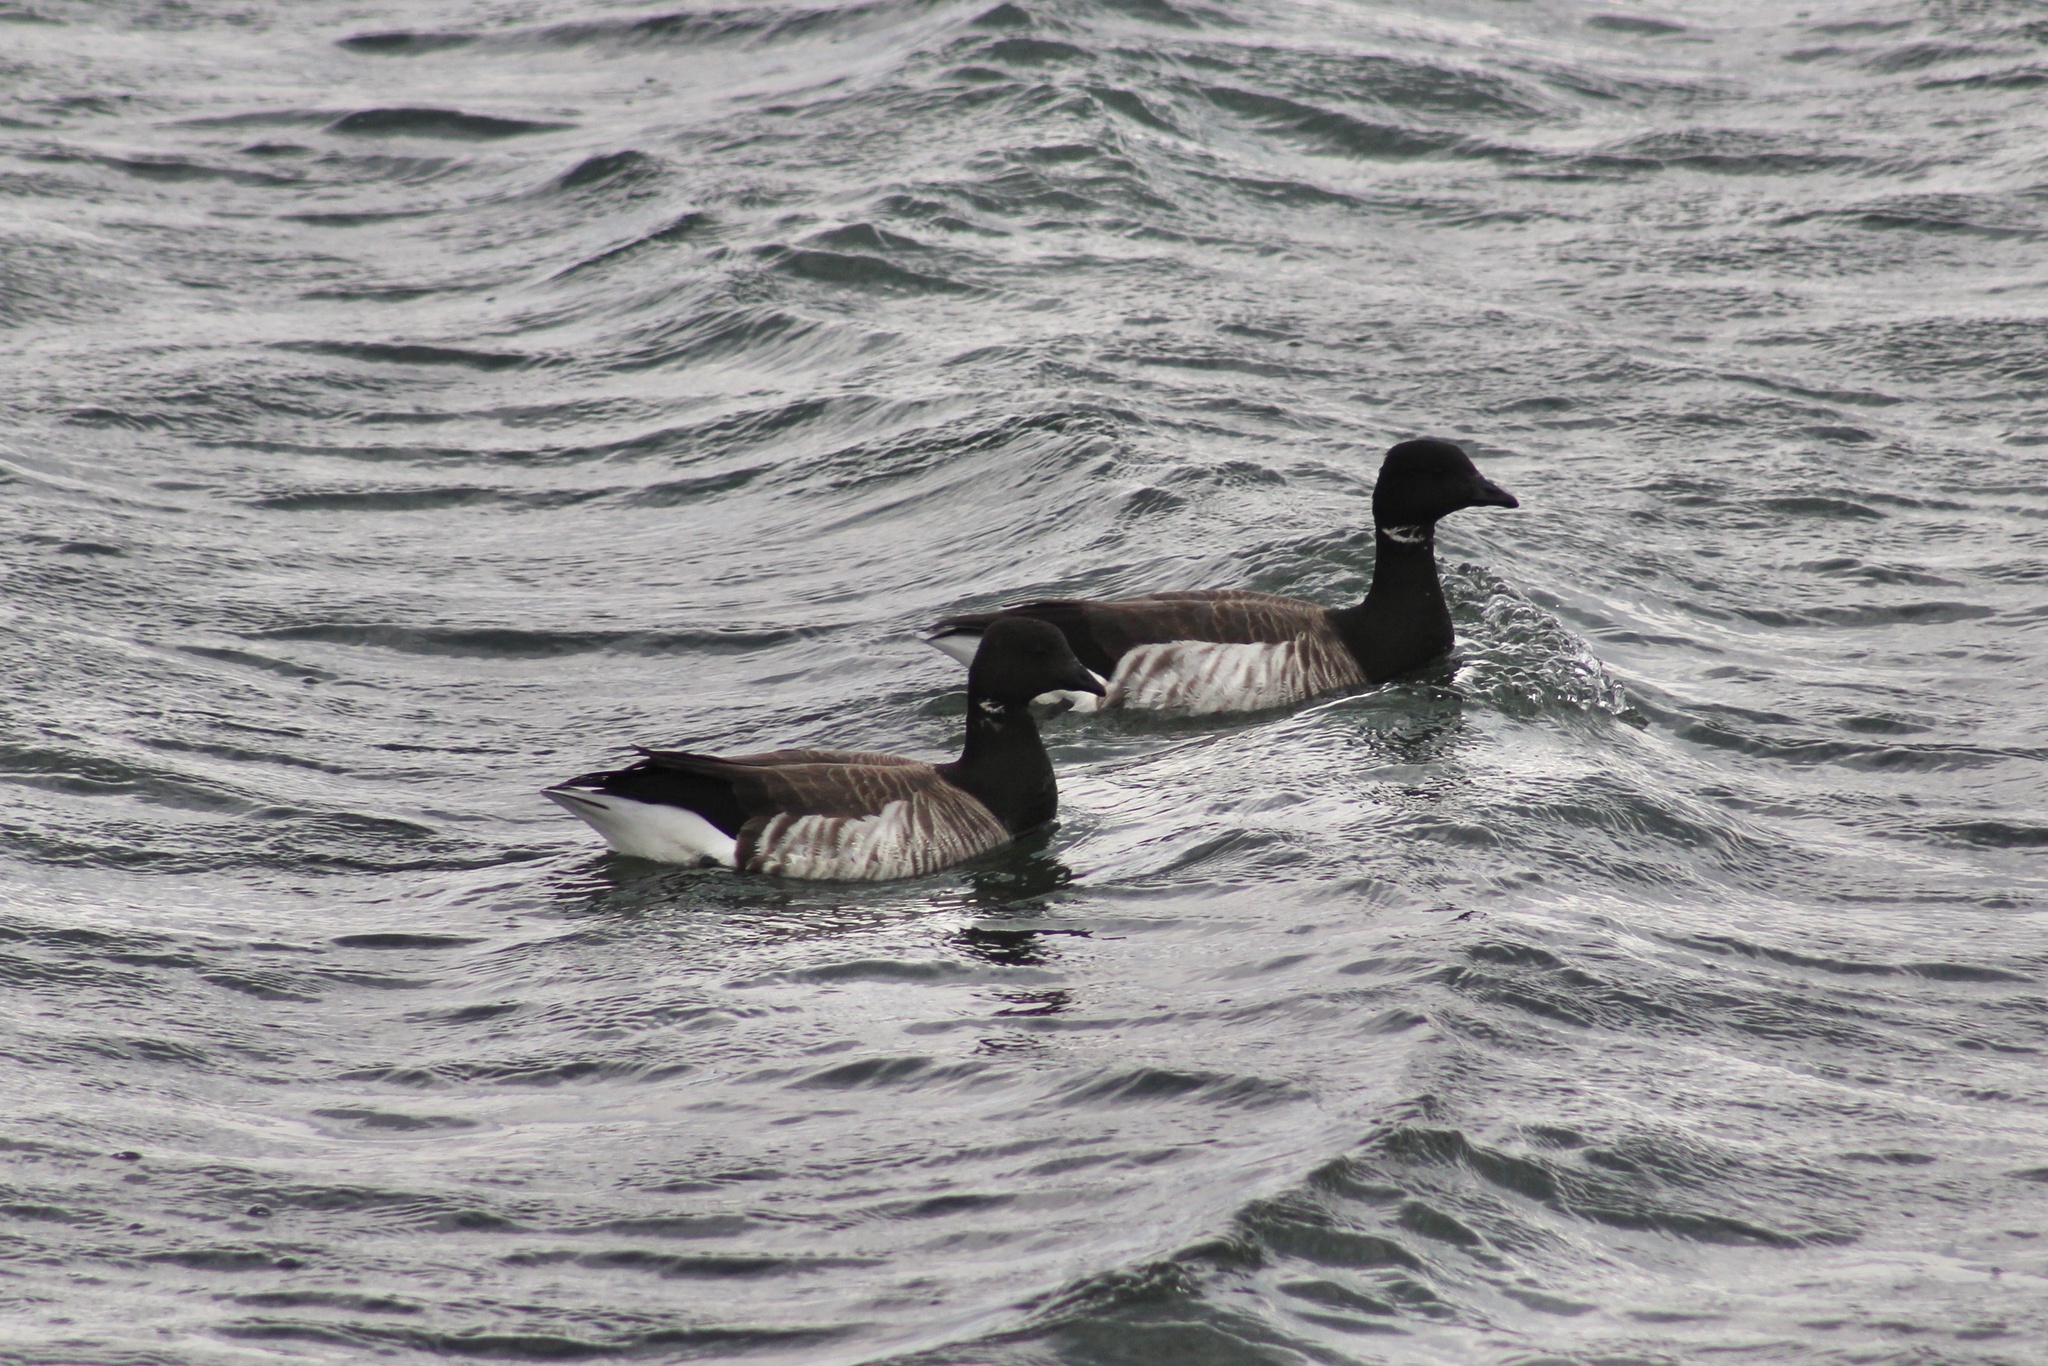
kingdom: Animalia
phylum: Chordata
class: Aves
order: Anseriformes
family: Anatidae
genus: Branta
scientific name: Branta bernicla
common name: Brant goose
